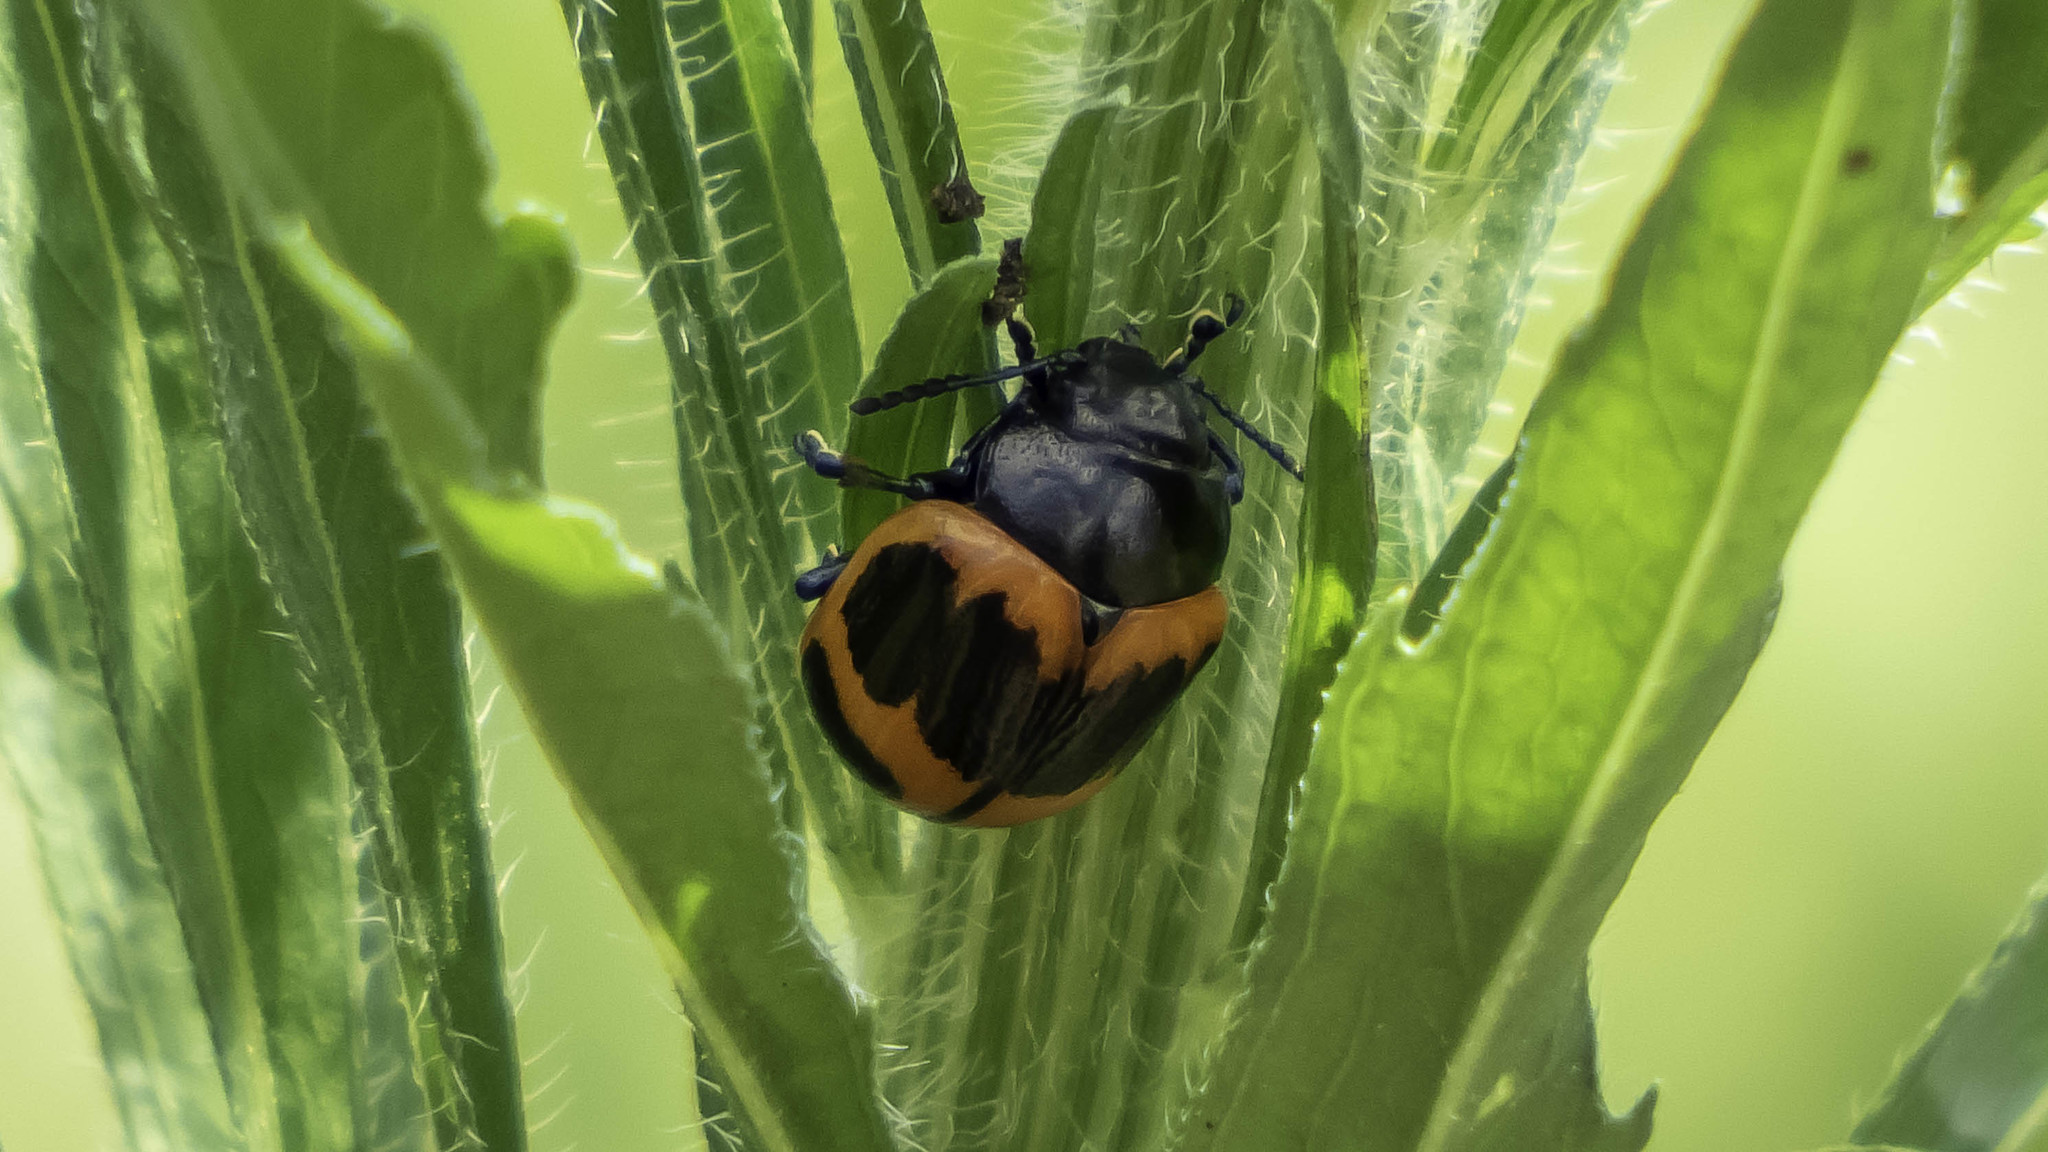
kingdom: Animalia
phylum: Arthropoda
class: Insecta
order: Coleoptera
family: Chrysomelidae
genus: Labidomera
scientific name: Labidomera clivicollis
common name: Swamp milkweed leaf beetle
